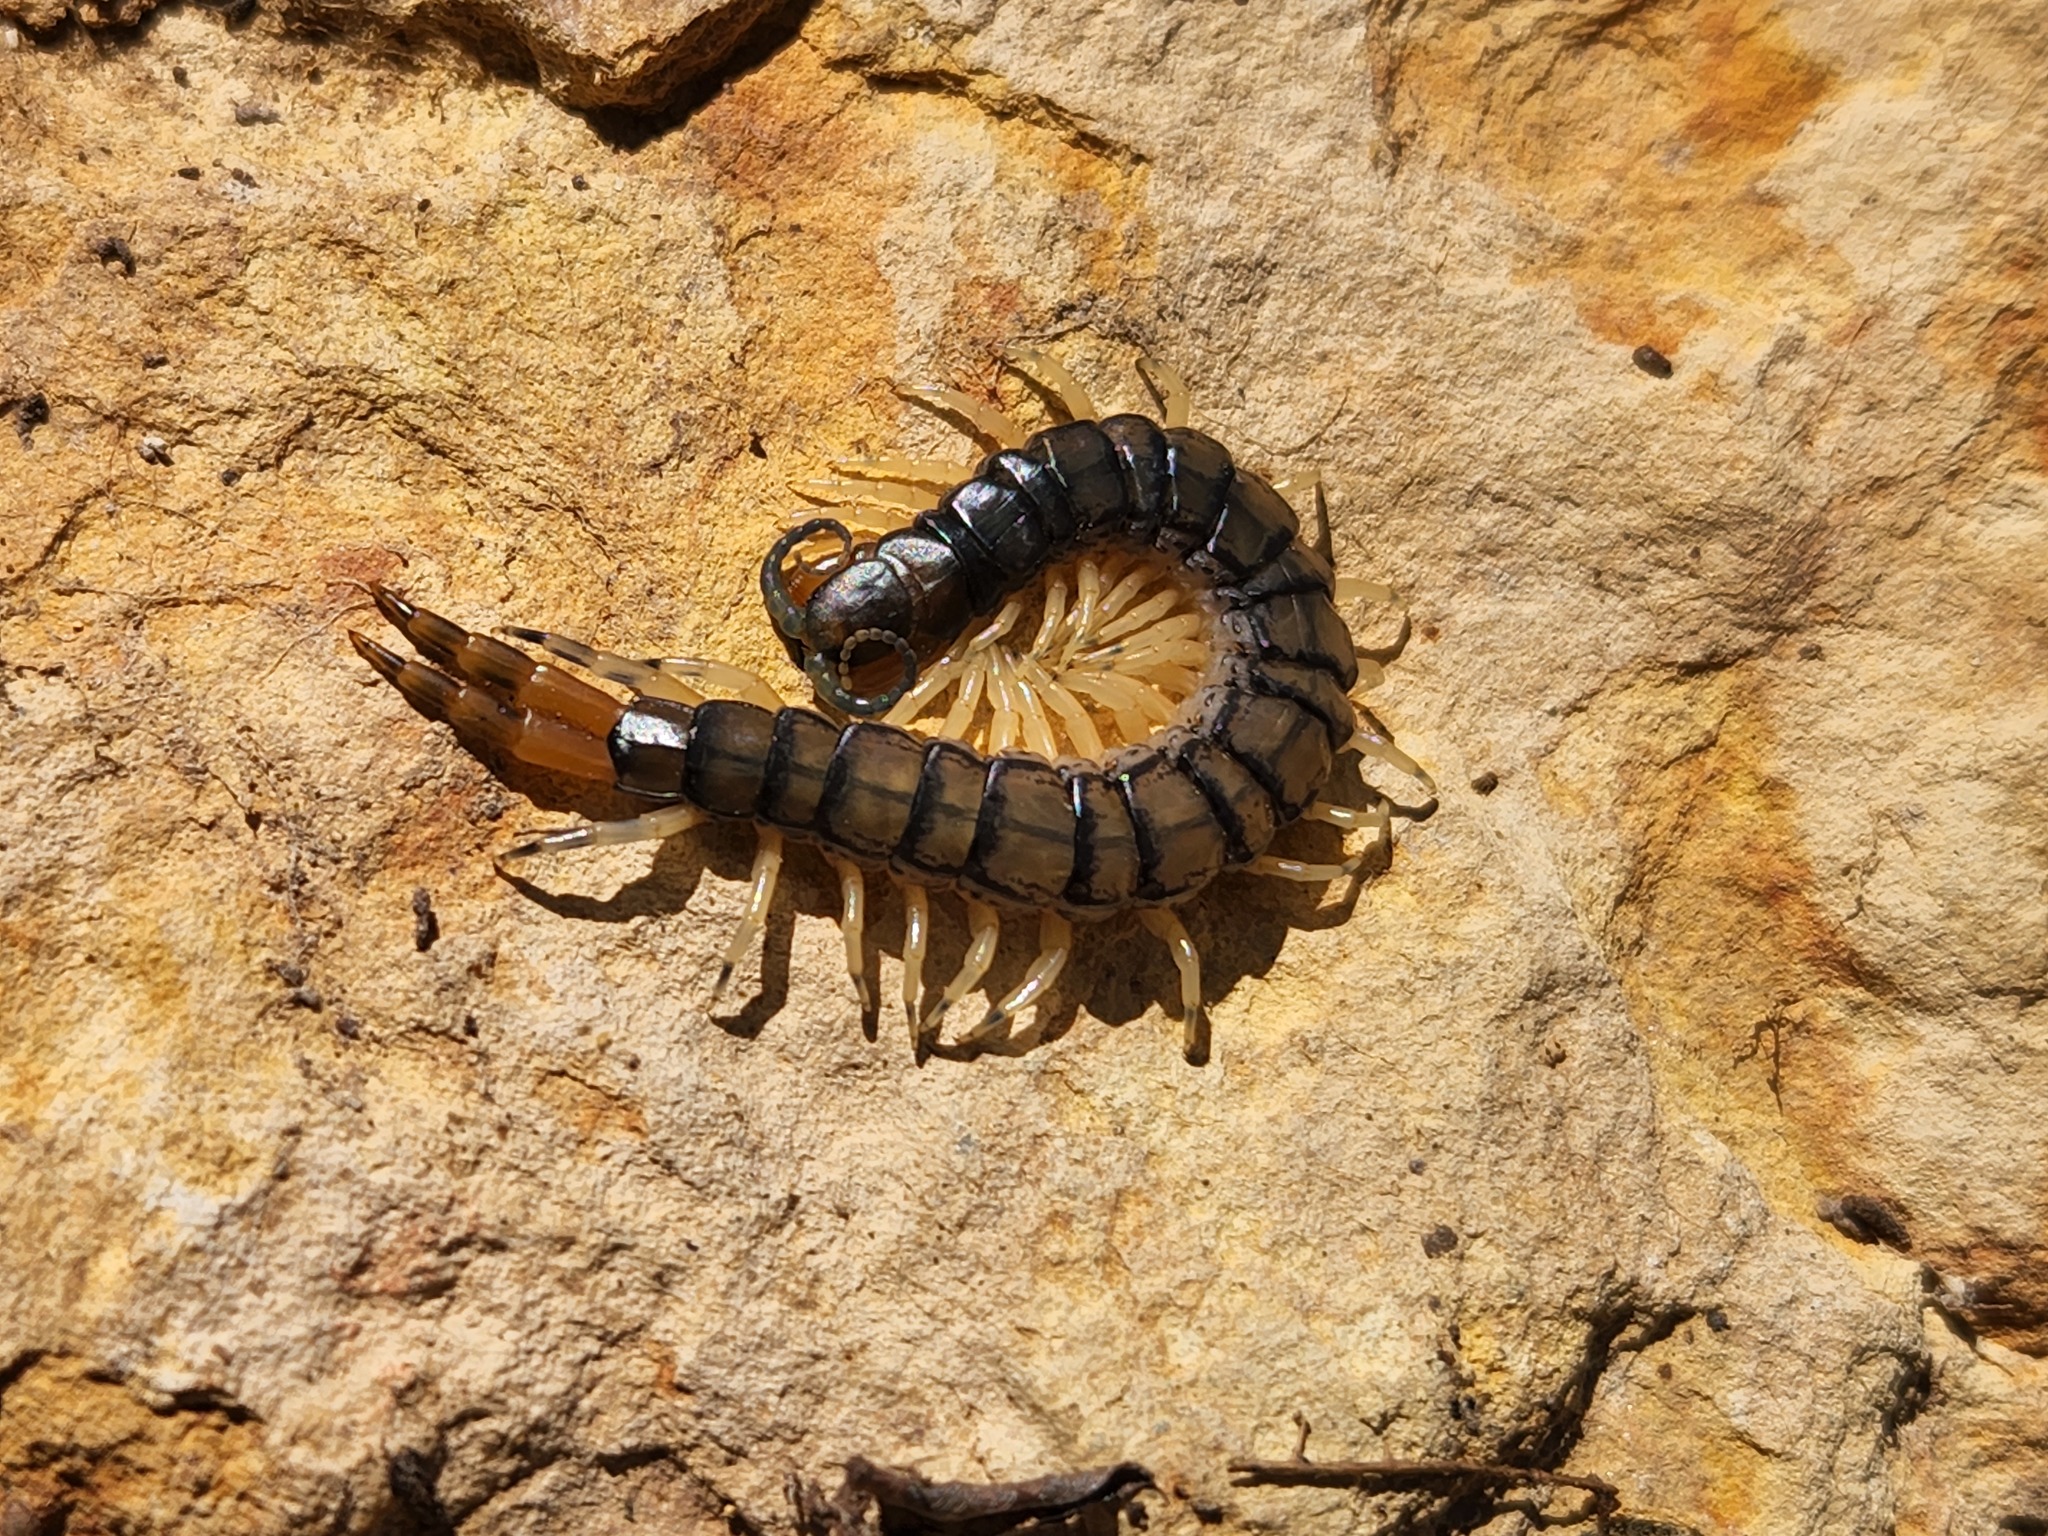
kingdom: Animalia
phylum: Arthropoda
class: Chilopoda
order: Scolopendromorpha
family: Scolopendridae
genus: Hemiscolopendra
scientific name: Hemiscolopendra marginata
